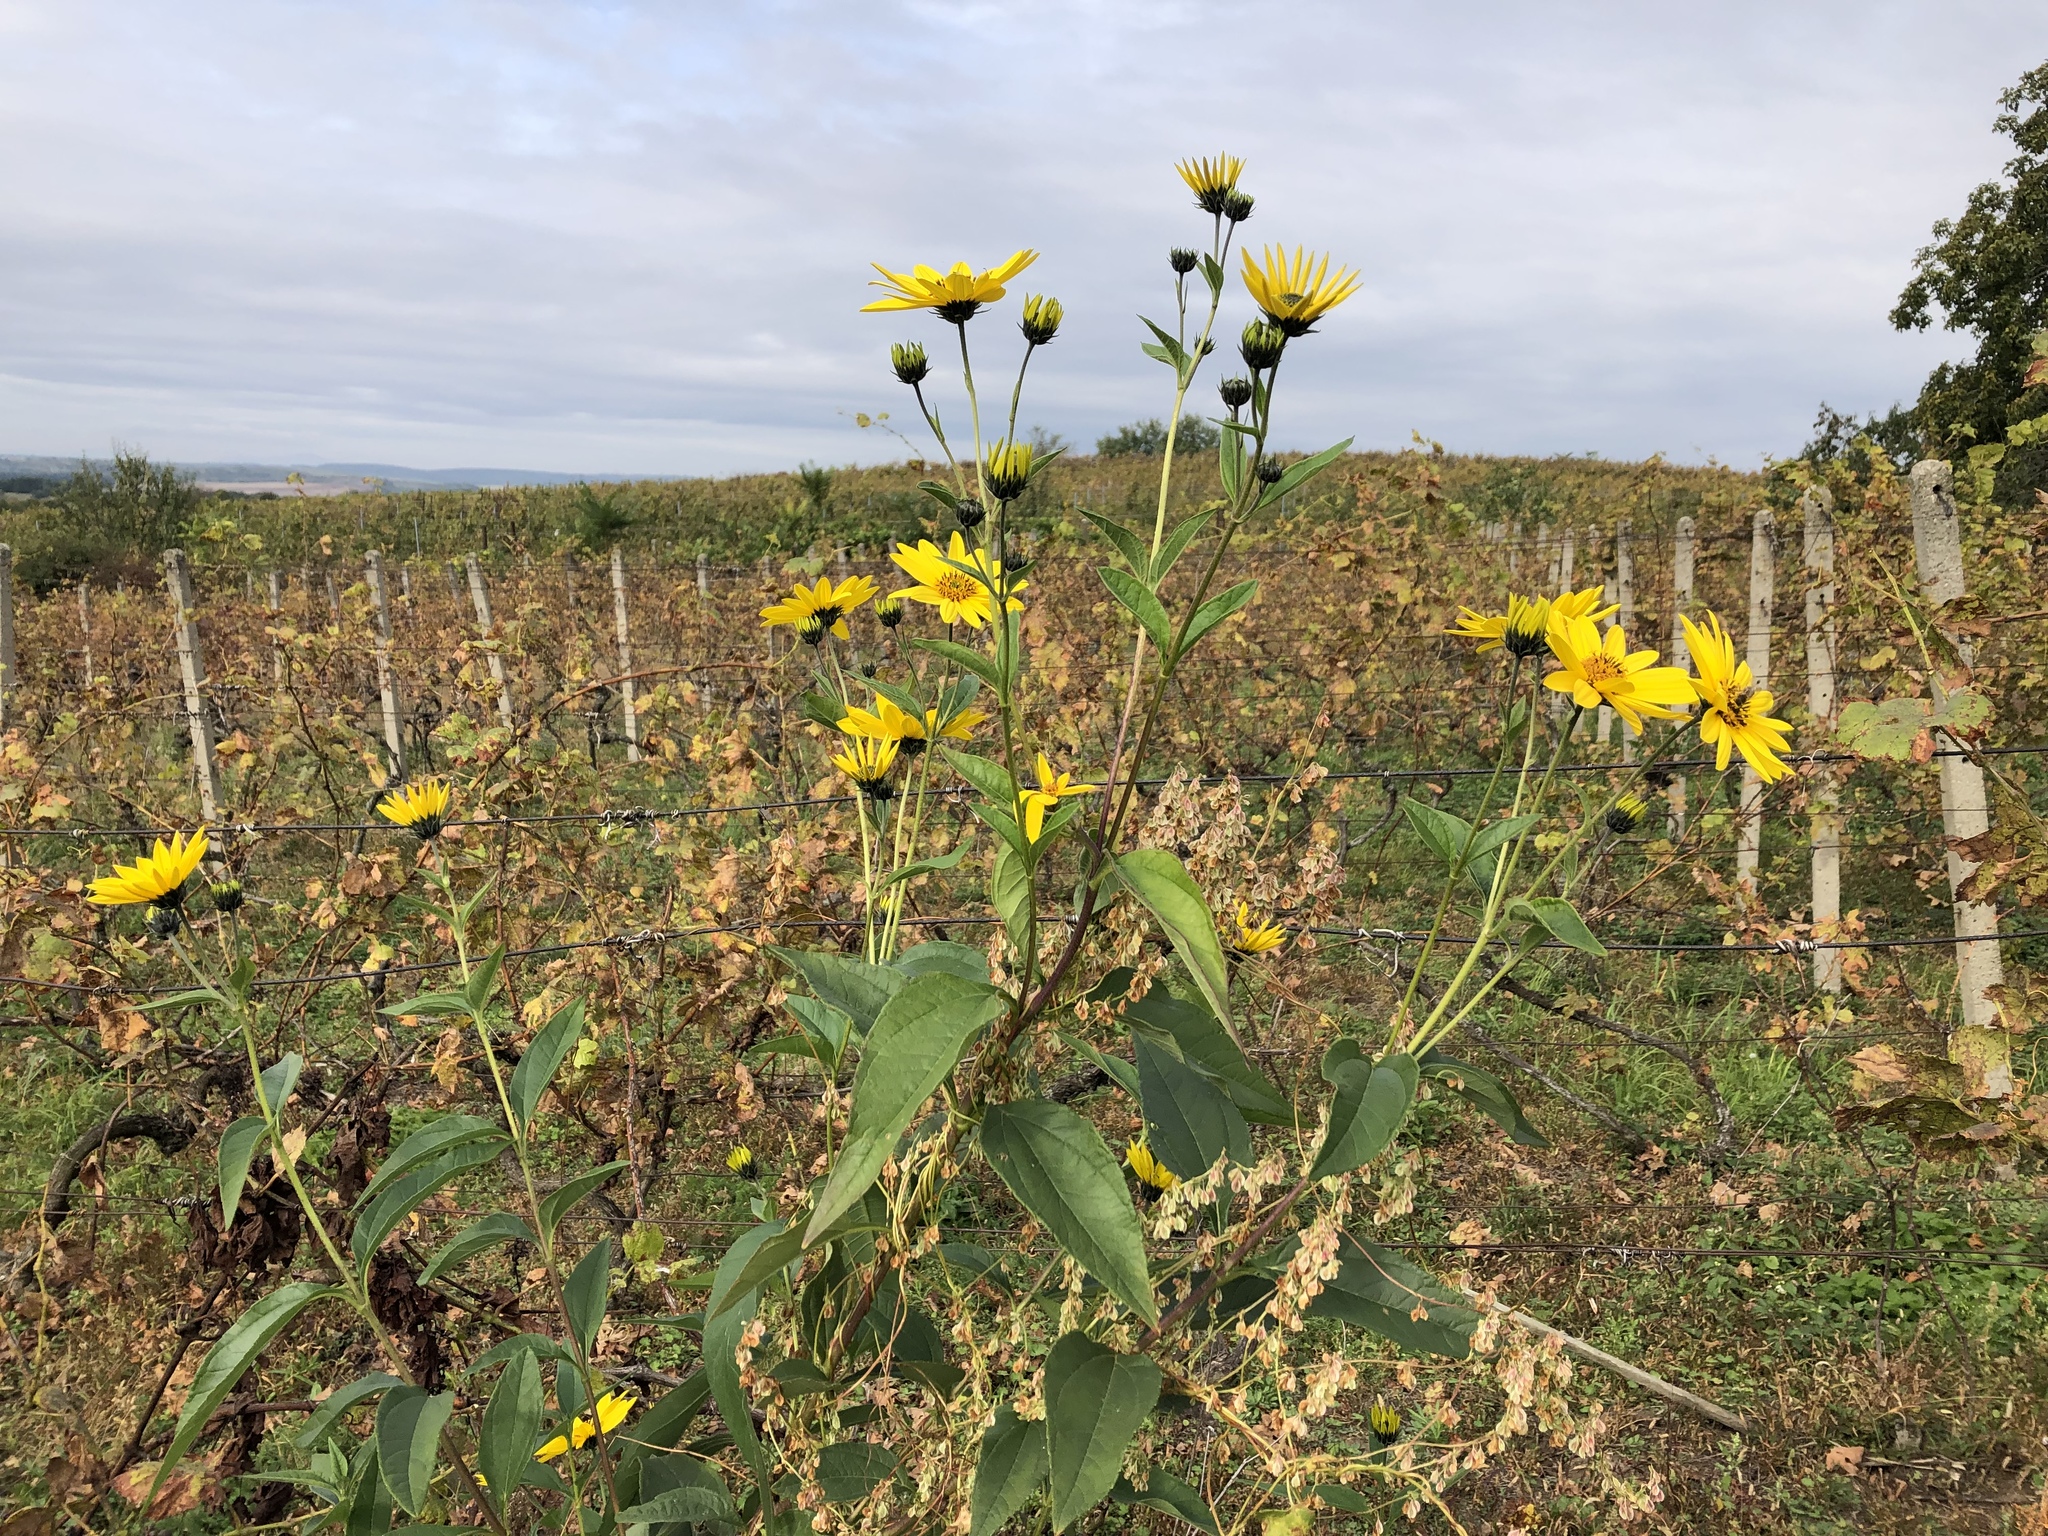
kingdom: Plantae
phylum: Tracheophyta
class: Magnoliopsida
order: Asterales
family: Asteraceae
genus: Helianthus
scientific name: Helianthus tuberosus
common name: Jerusalem artichoke
